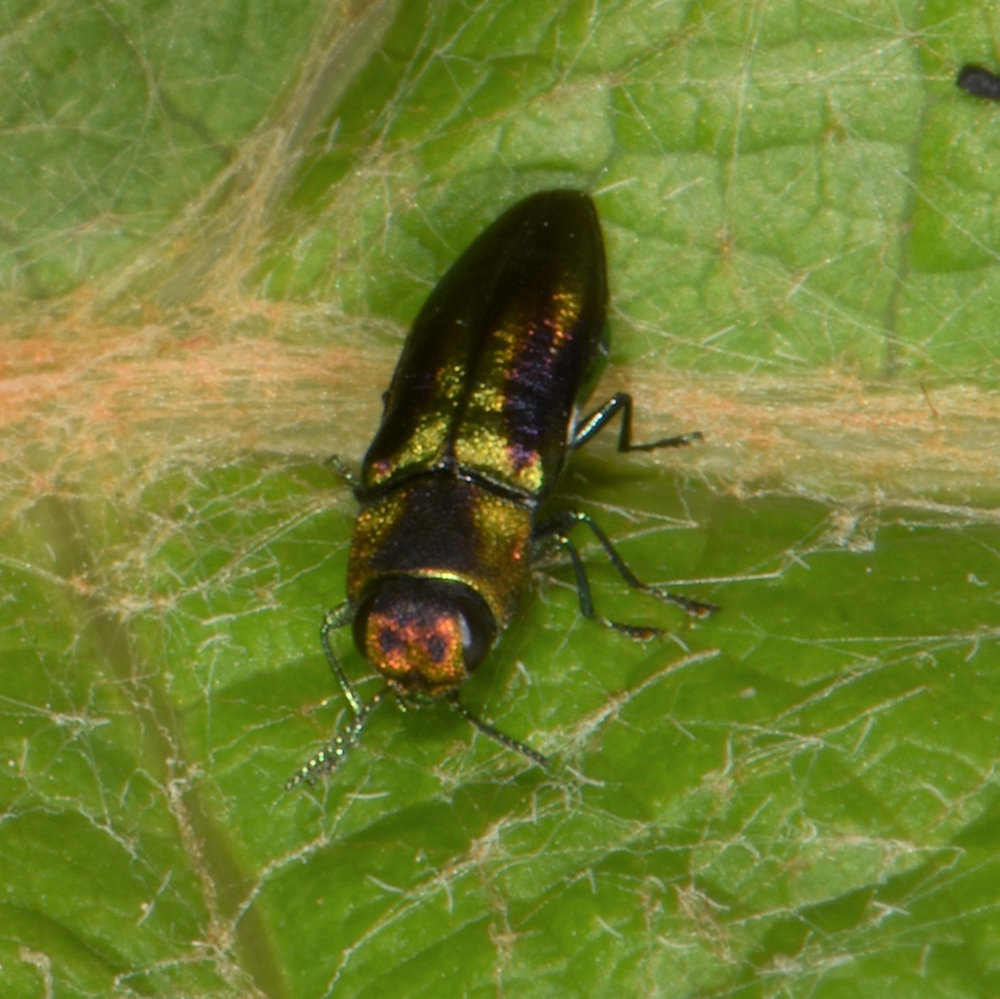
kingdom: Animalia
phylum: Arthropoda
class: Insecta
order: Coleoptera
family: Buprestidae
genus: Anthaxia
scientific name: Anthaxia quercata
